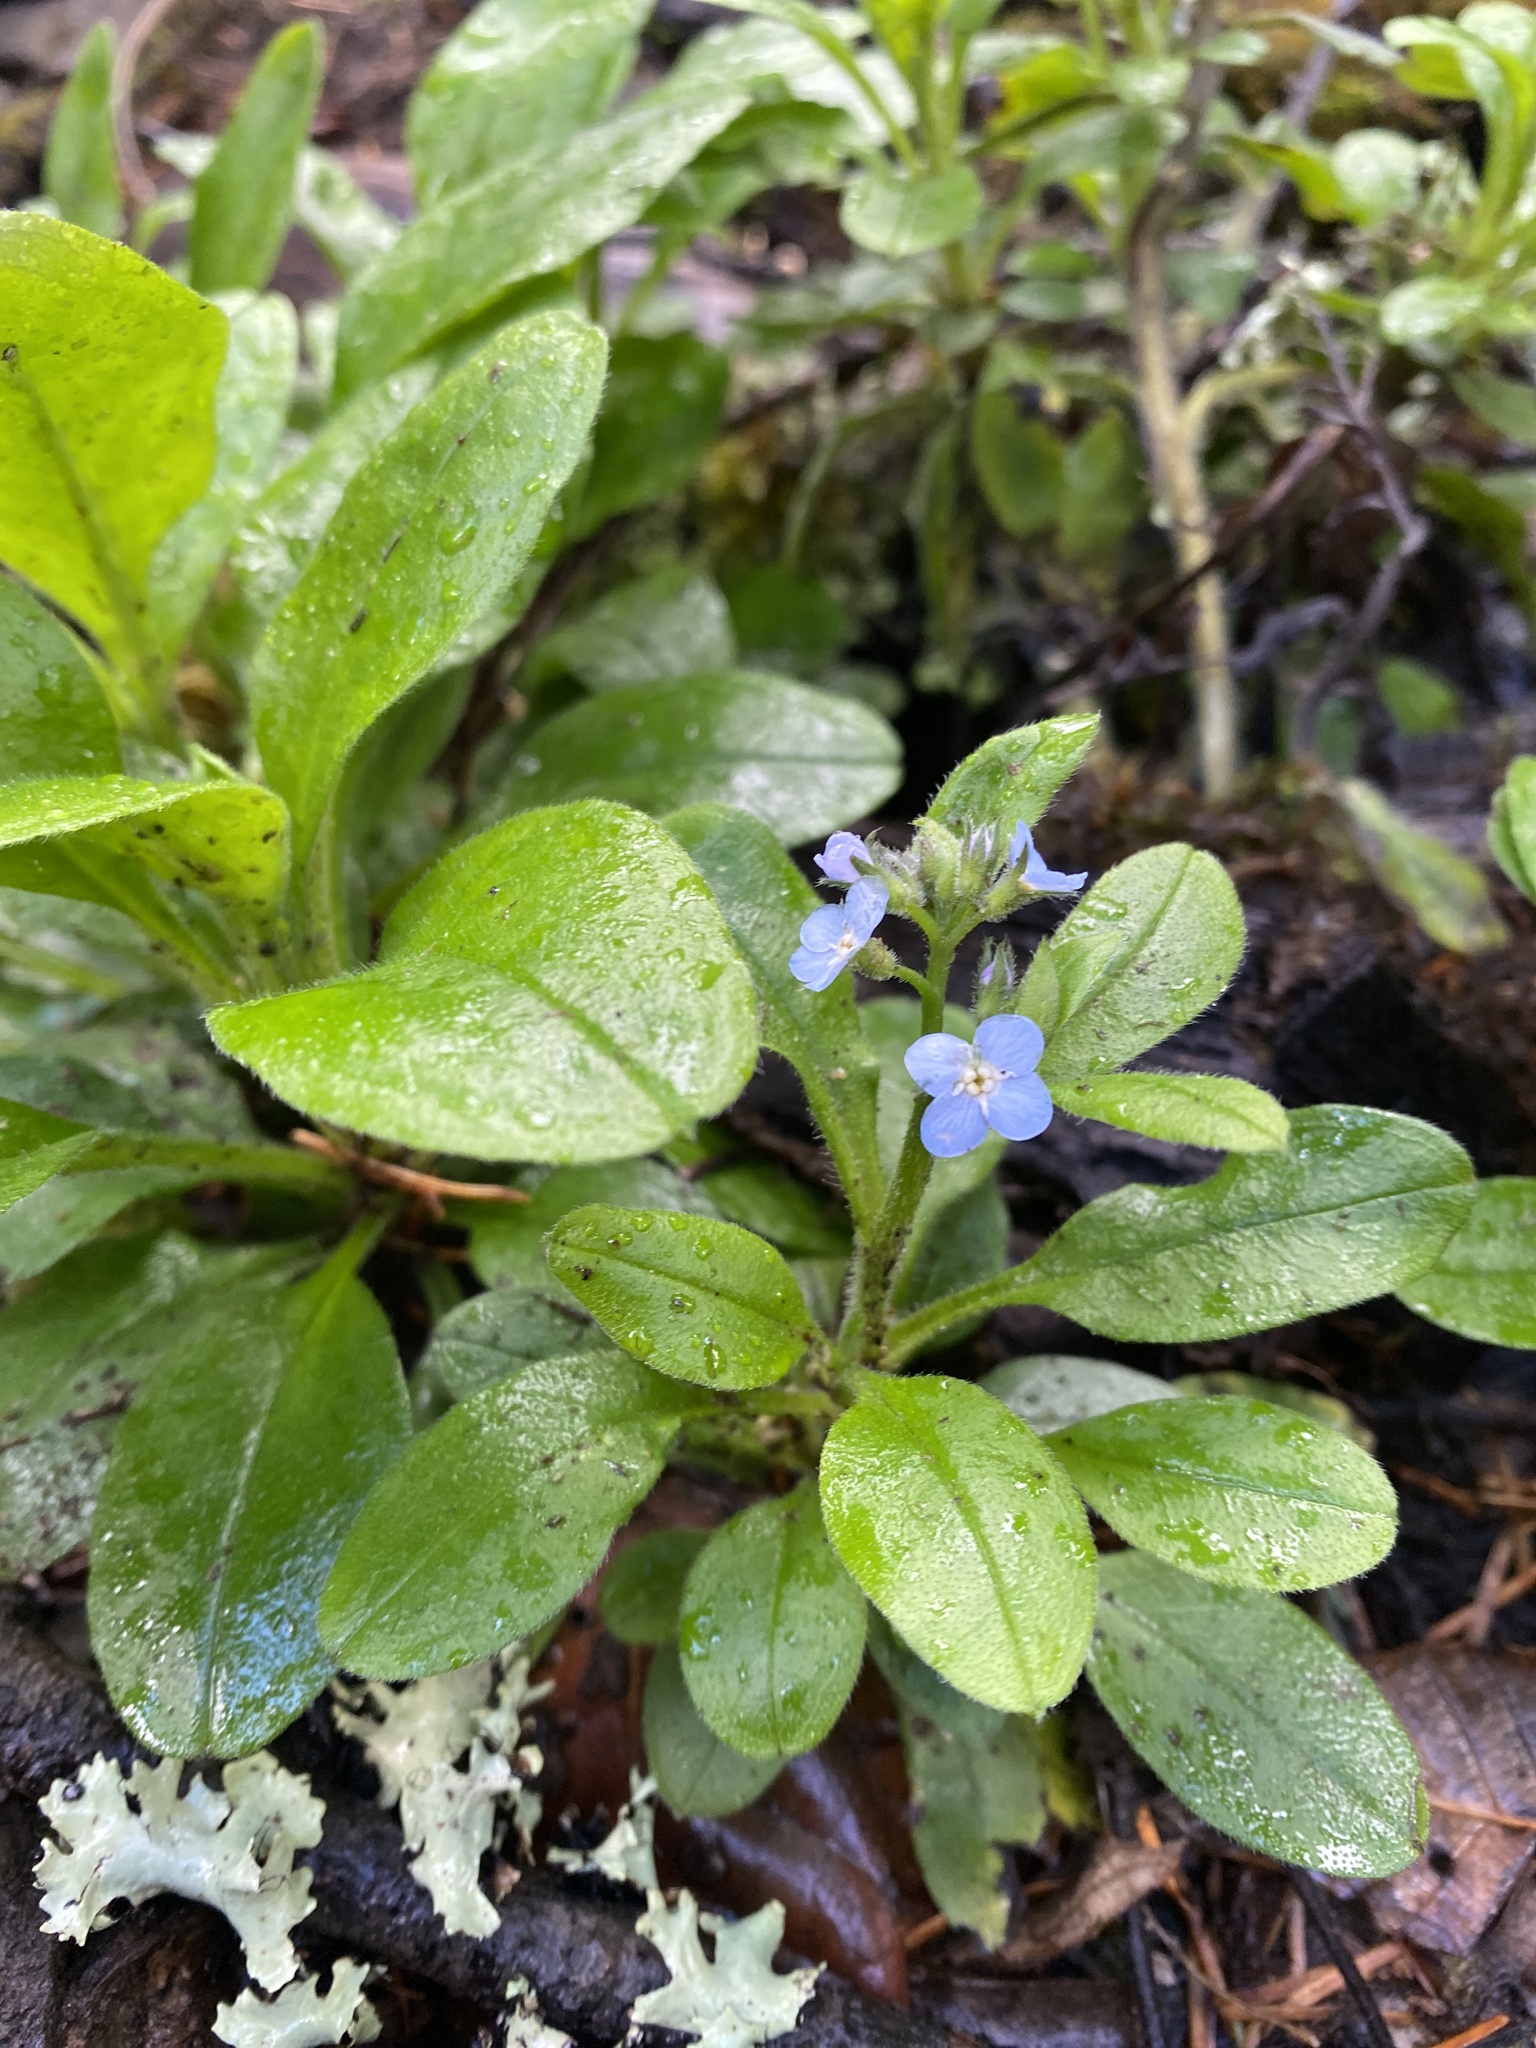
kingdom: Plantae
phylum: Tracheophyta
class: Magnoliopsida
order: Boraginales
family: Boraginaceae
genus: Myosotis
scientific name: Myosotis latifolia
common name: Broadleaf forget-me-not
